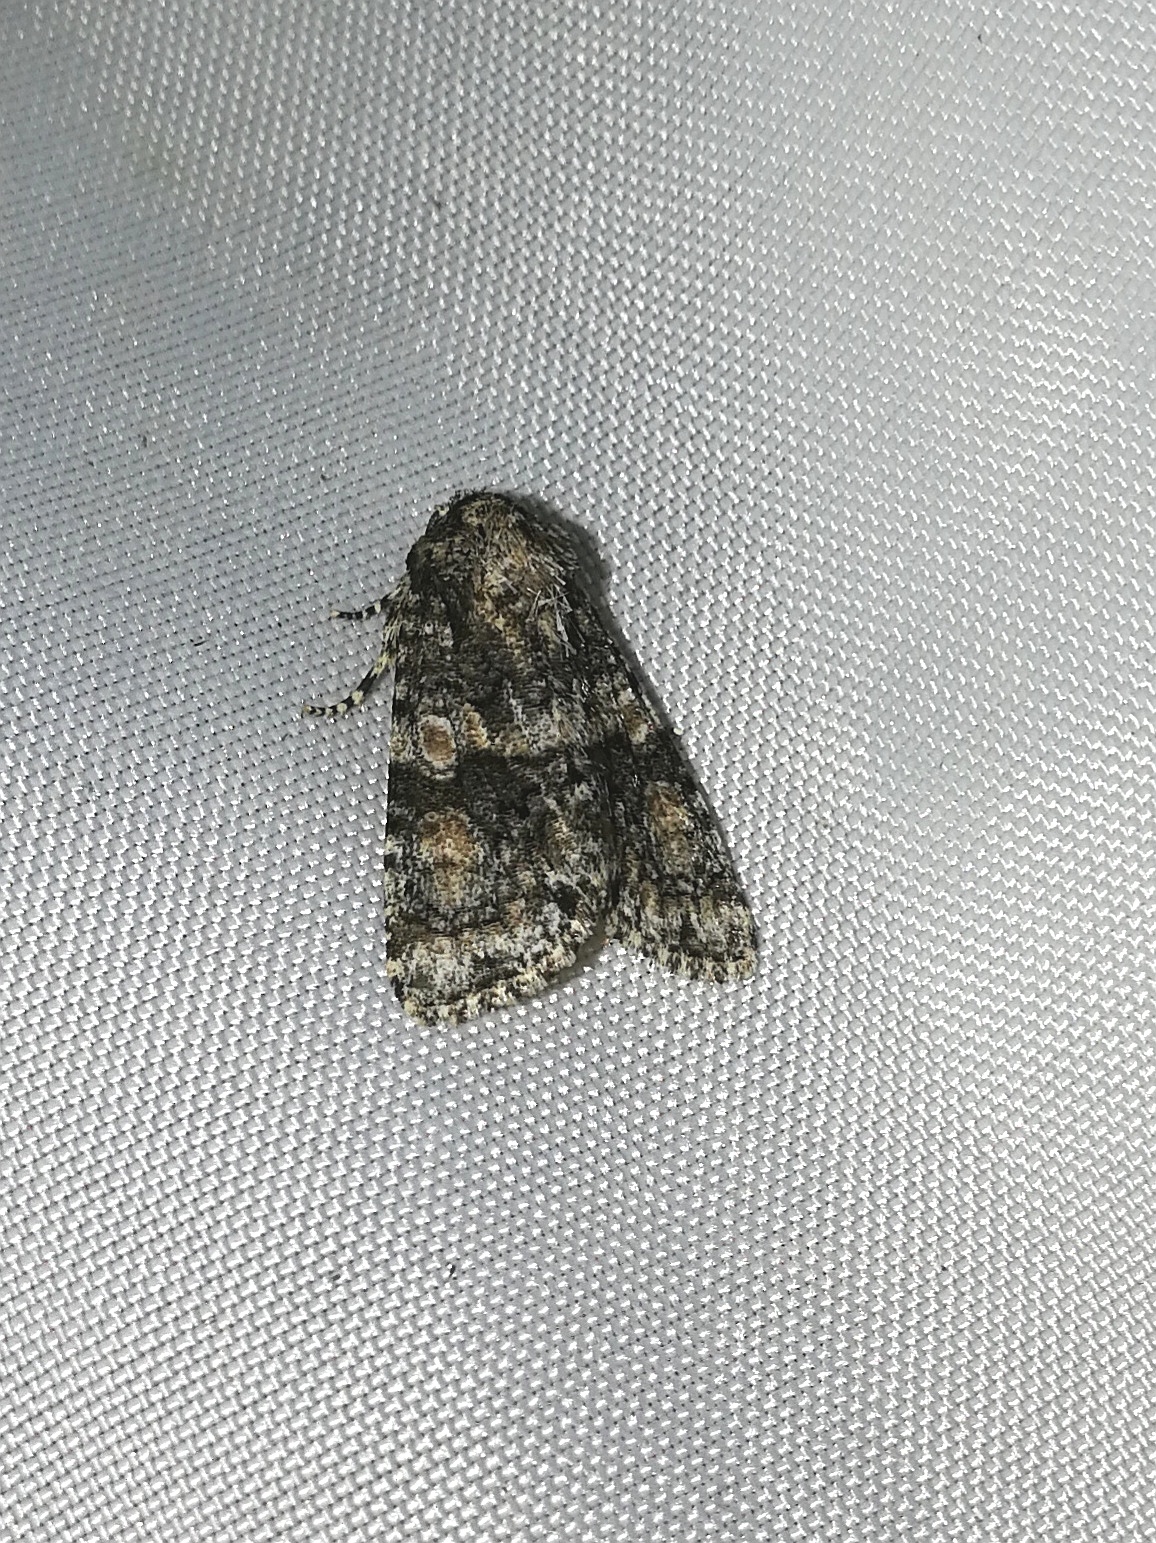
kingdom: Animalia
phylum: Arthropoda
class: Insecta
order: Lepidoptera
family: Noctuidae
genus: Craniophora
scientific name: Craniophora pontica
